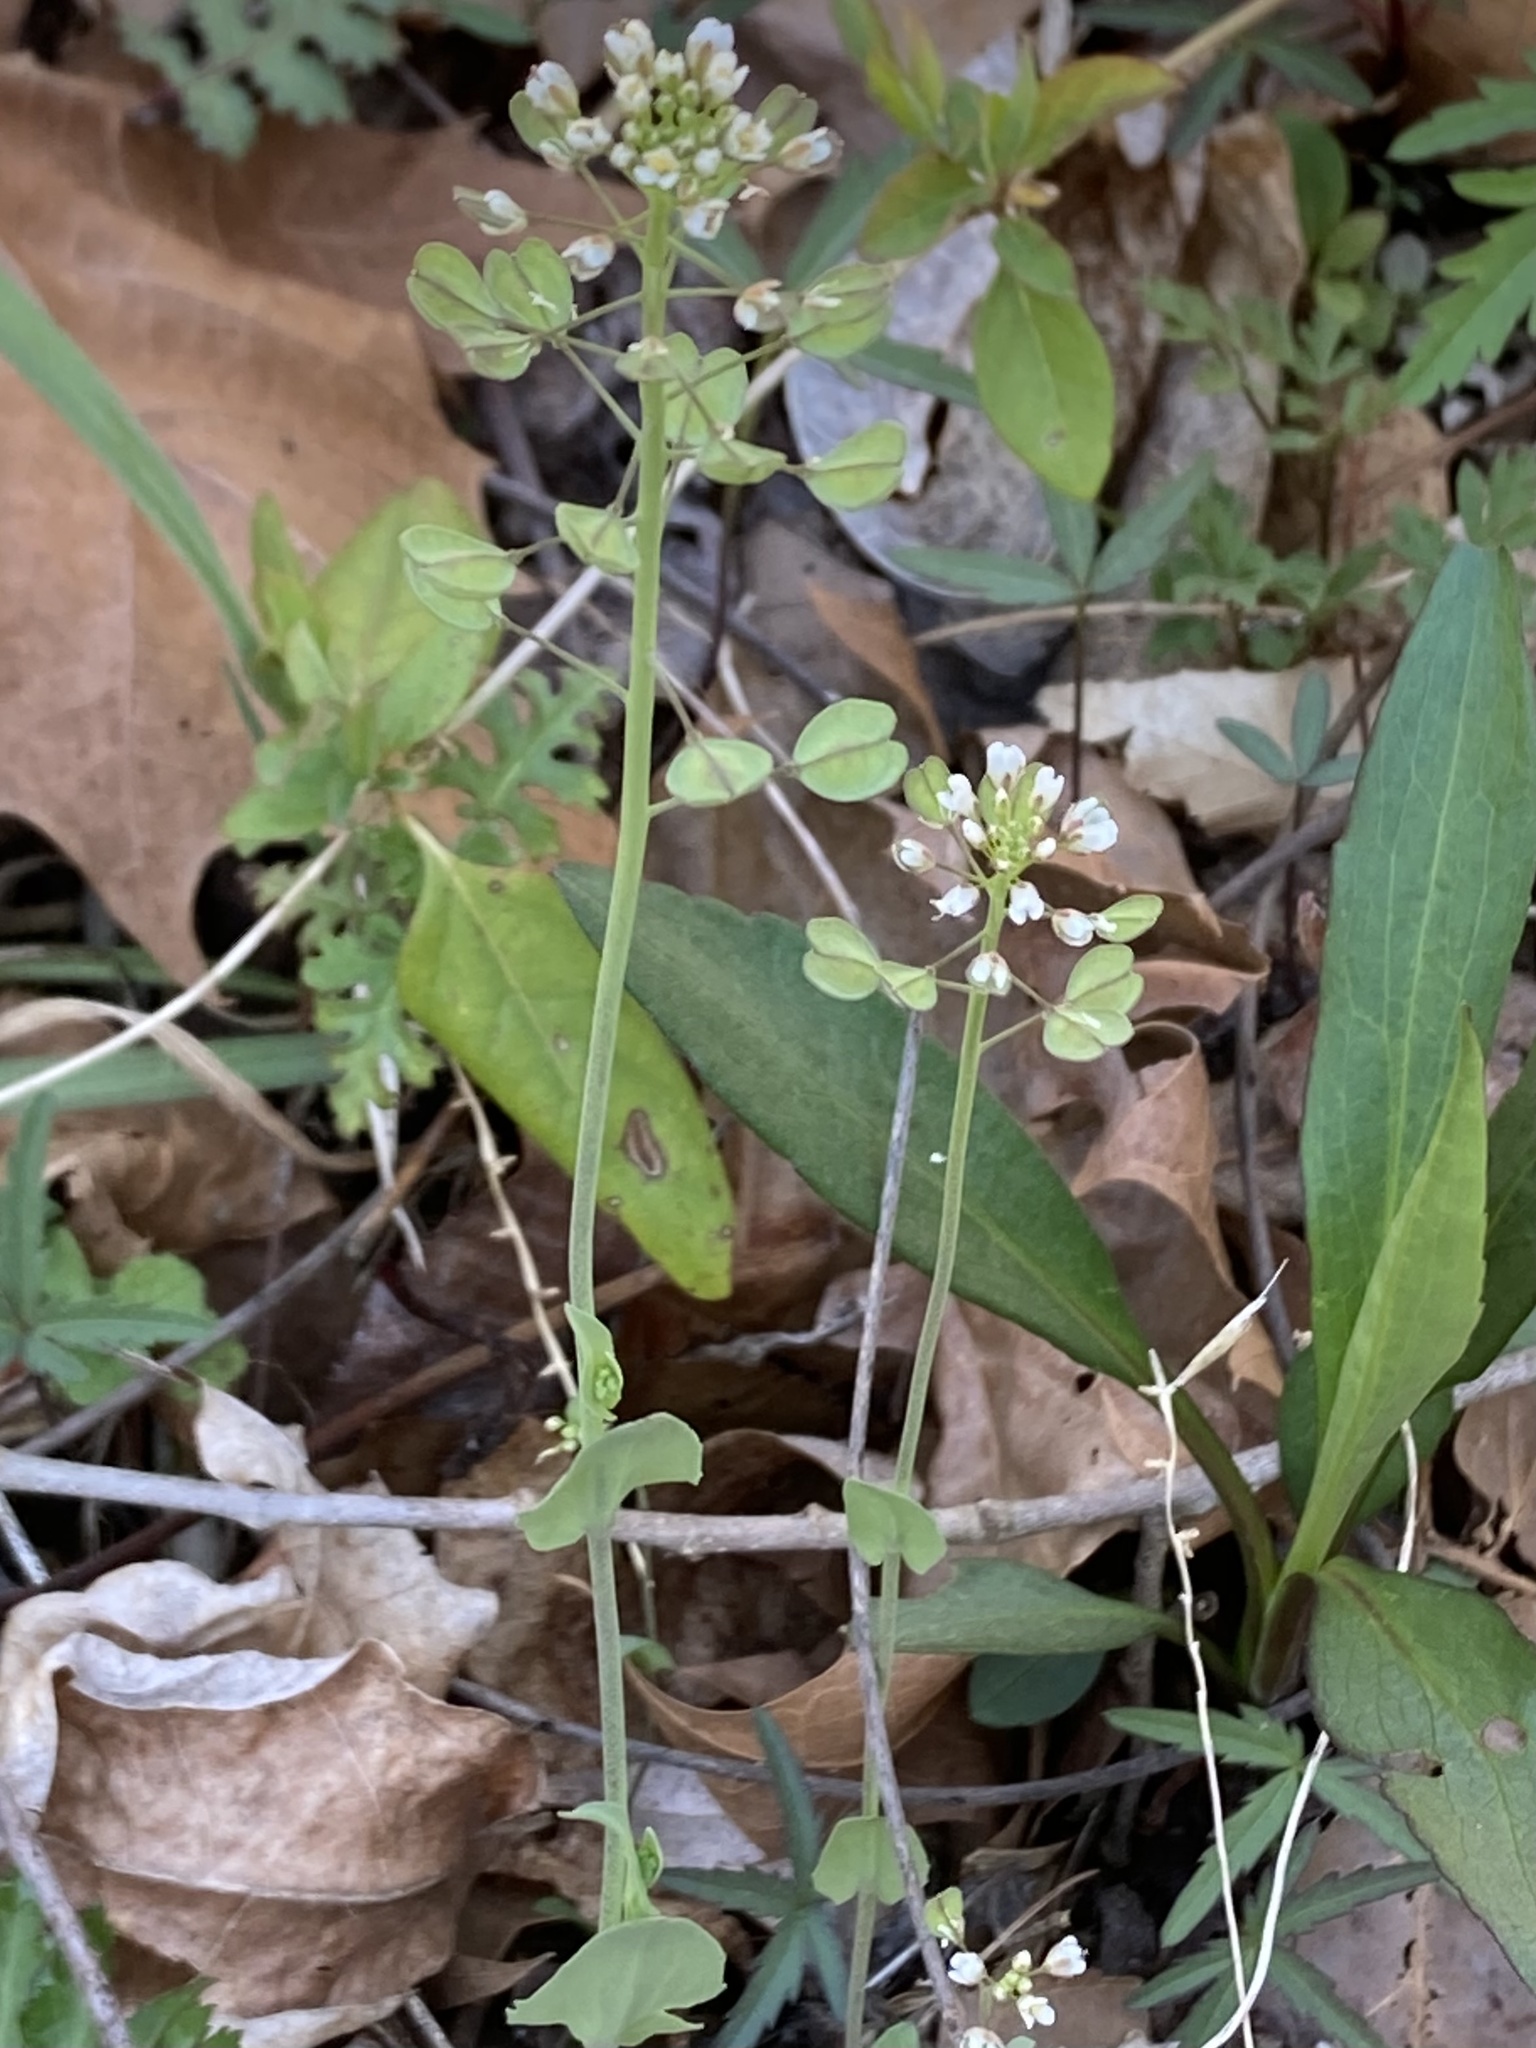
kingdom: Plantae
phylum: Tracheophyta
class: Magnoliopsida
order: Brassicales
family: Brassicaceae
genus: Noccaea
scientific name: Noccaea perfoliata
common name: Perfoliate pennycress
